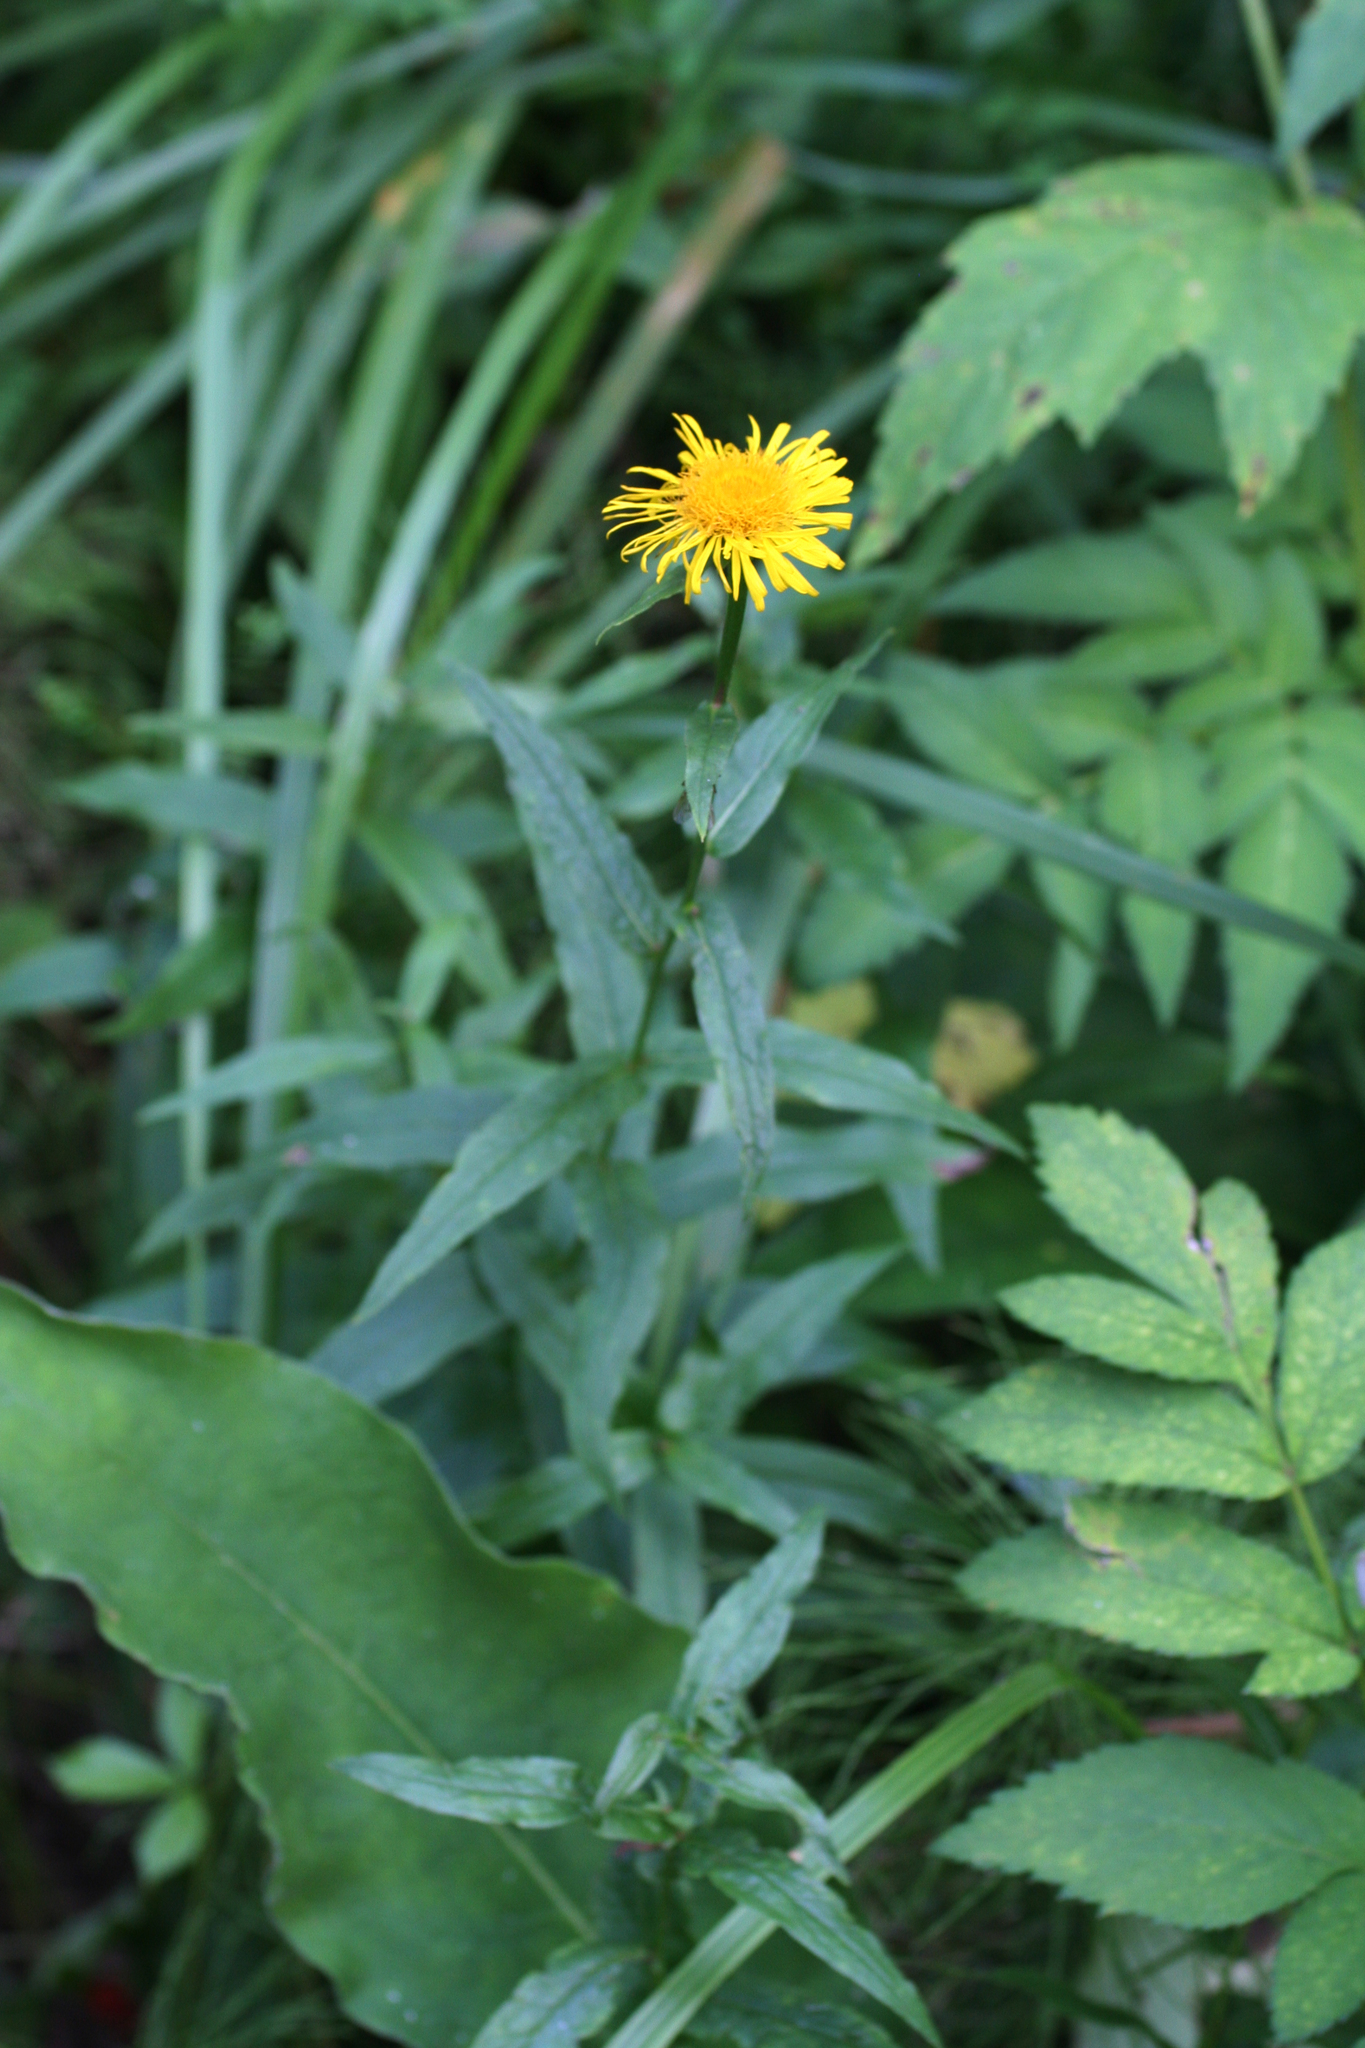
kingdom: Plantae
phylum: Tracheophyta
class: Magnoliopsida
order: Asterales
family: Asteraceae
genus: Pentanema
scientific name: Pentanema salicinum
